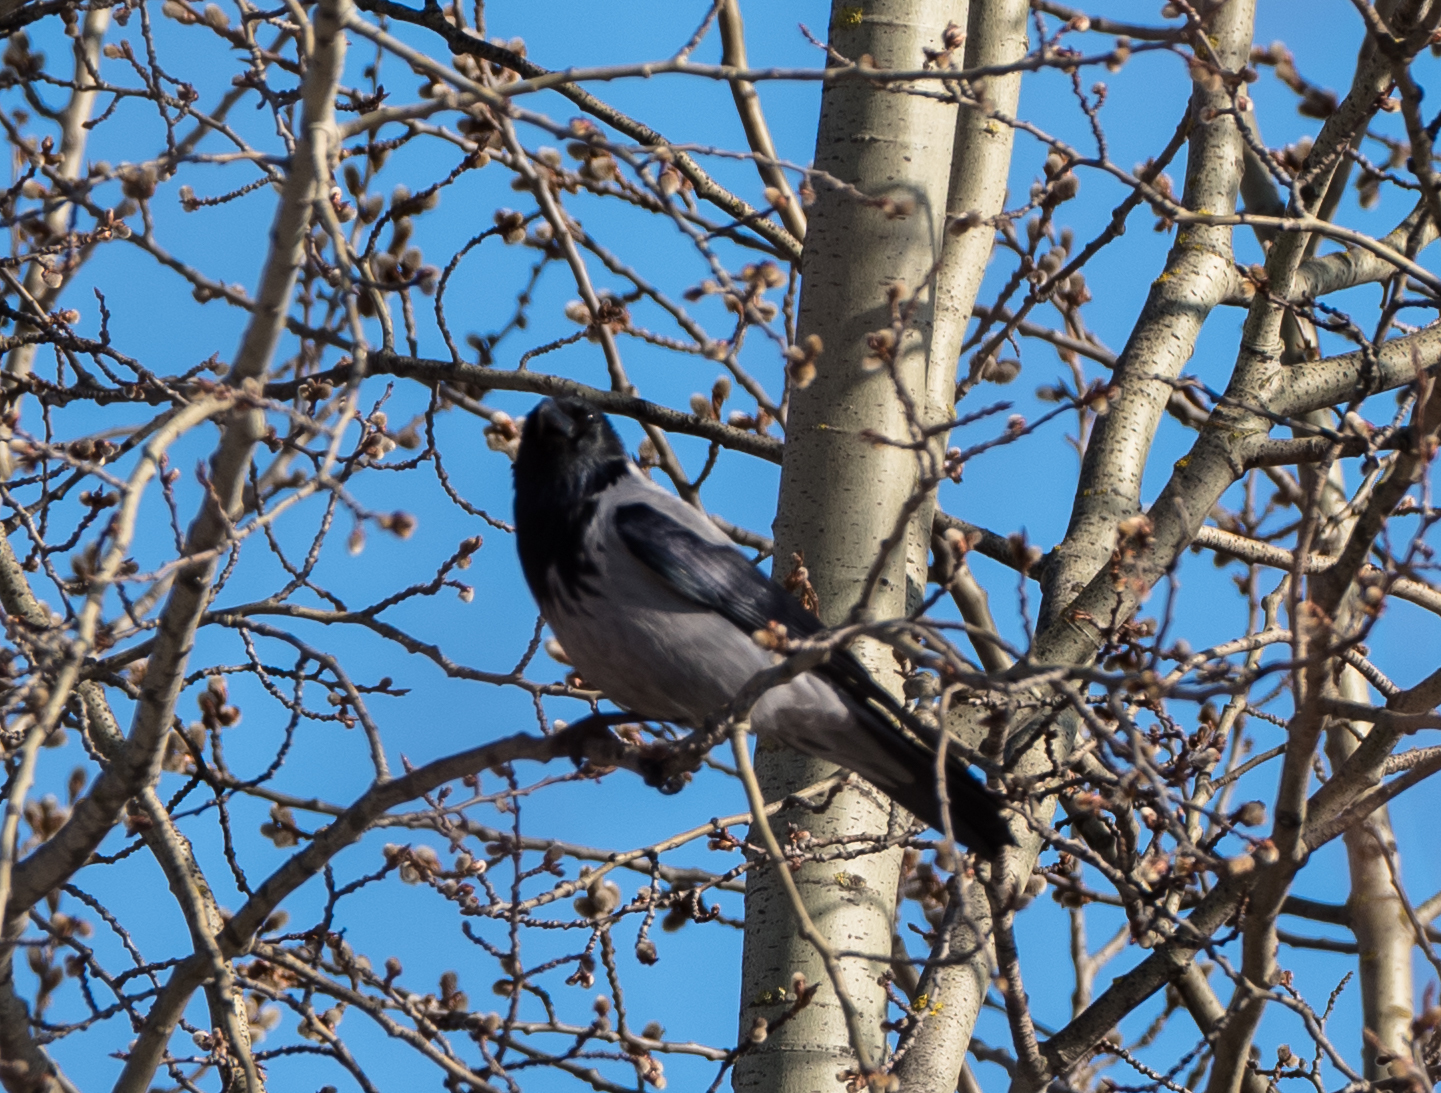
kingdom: Animalia
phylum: Chordata
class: Aves
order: Passeriformes
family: Corvidae
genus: Corvus
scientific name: Corvus cornix
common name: Hooded crow
